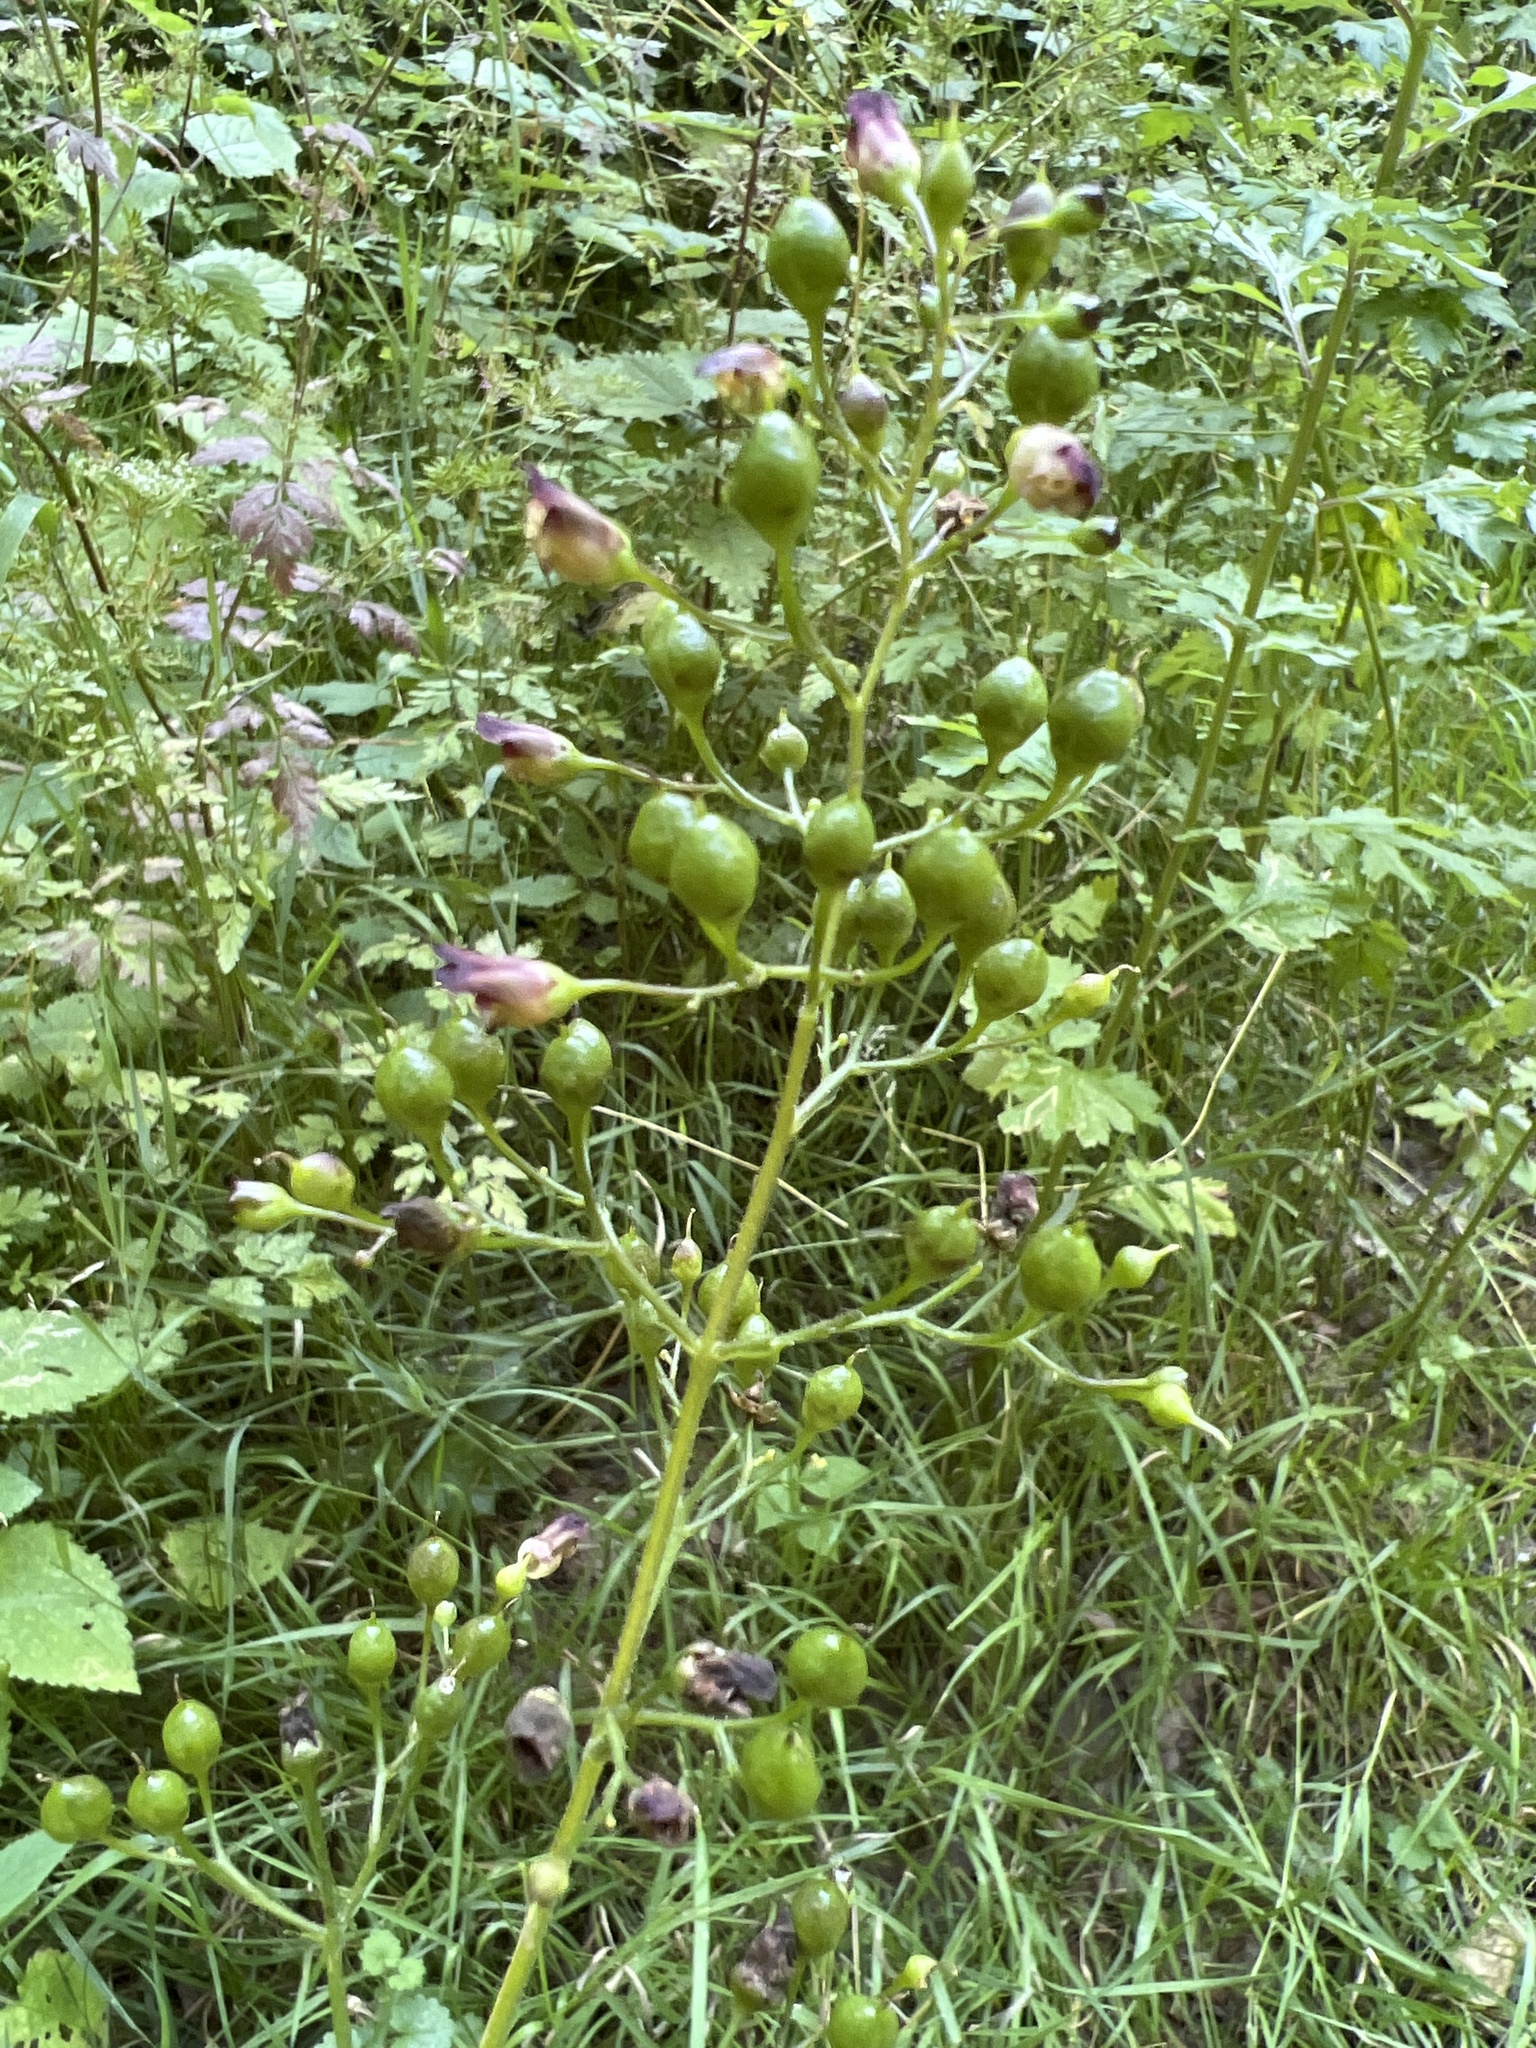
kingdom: Plantae
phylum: Tracheophyta
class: Magnoliopsida
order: Lamiales
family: Scrophulariaceae
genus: Scrophularia
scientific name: Scrophularia nodosa
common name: Common figwort
